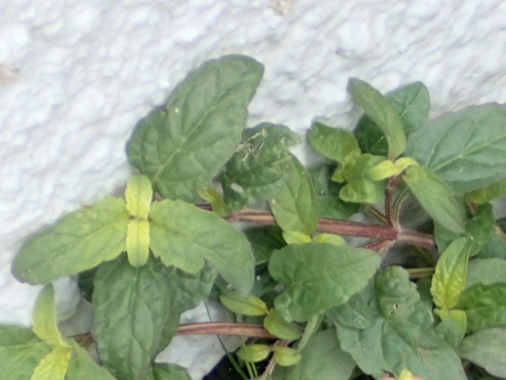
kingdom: Plantae
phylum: Tracheophyta
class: Magnoliopsida
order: Lamiales
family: Lamiaceae
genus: Prunella
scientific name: Prunella vulgaris
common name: Heal-all
